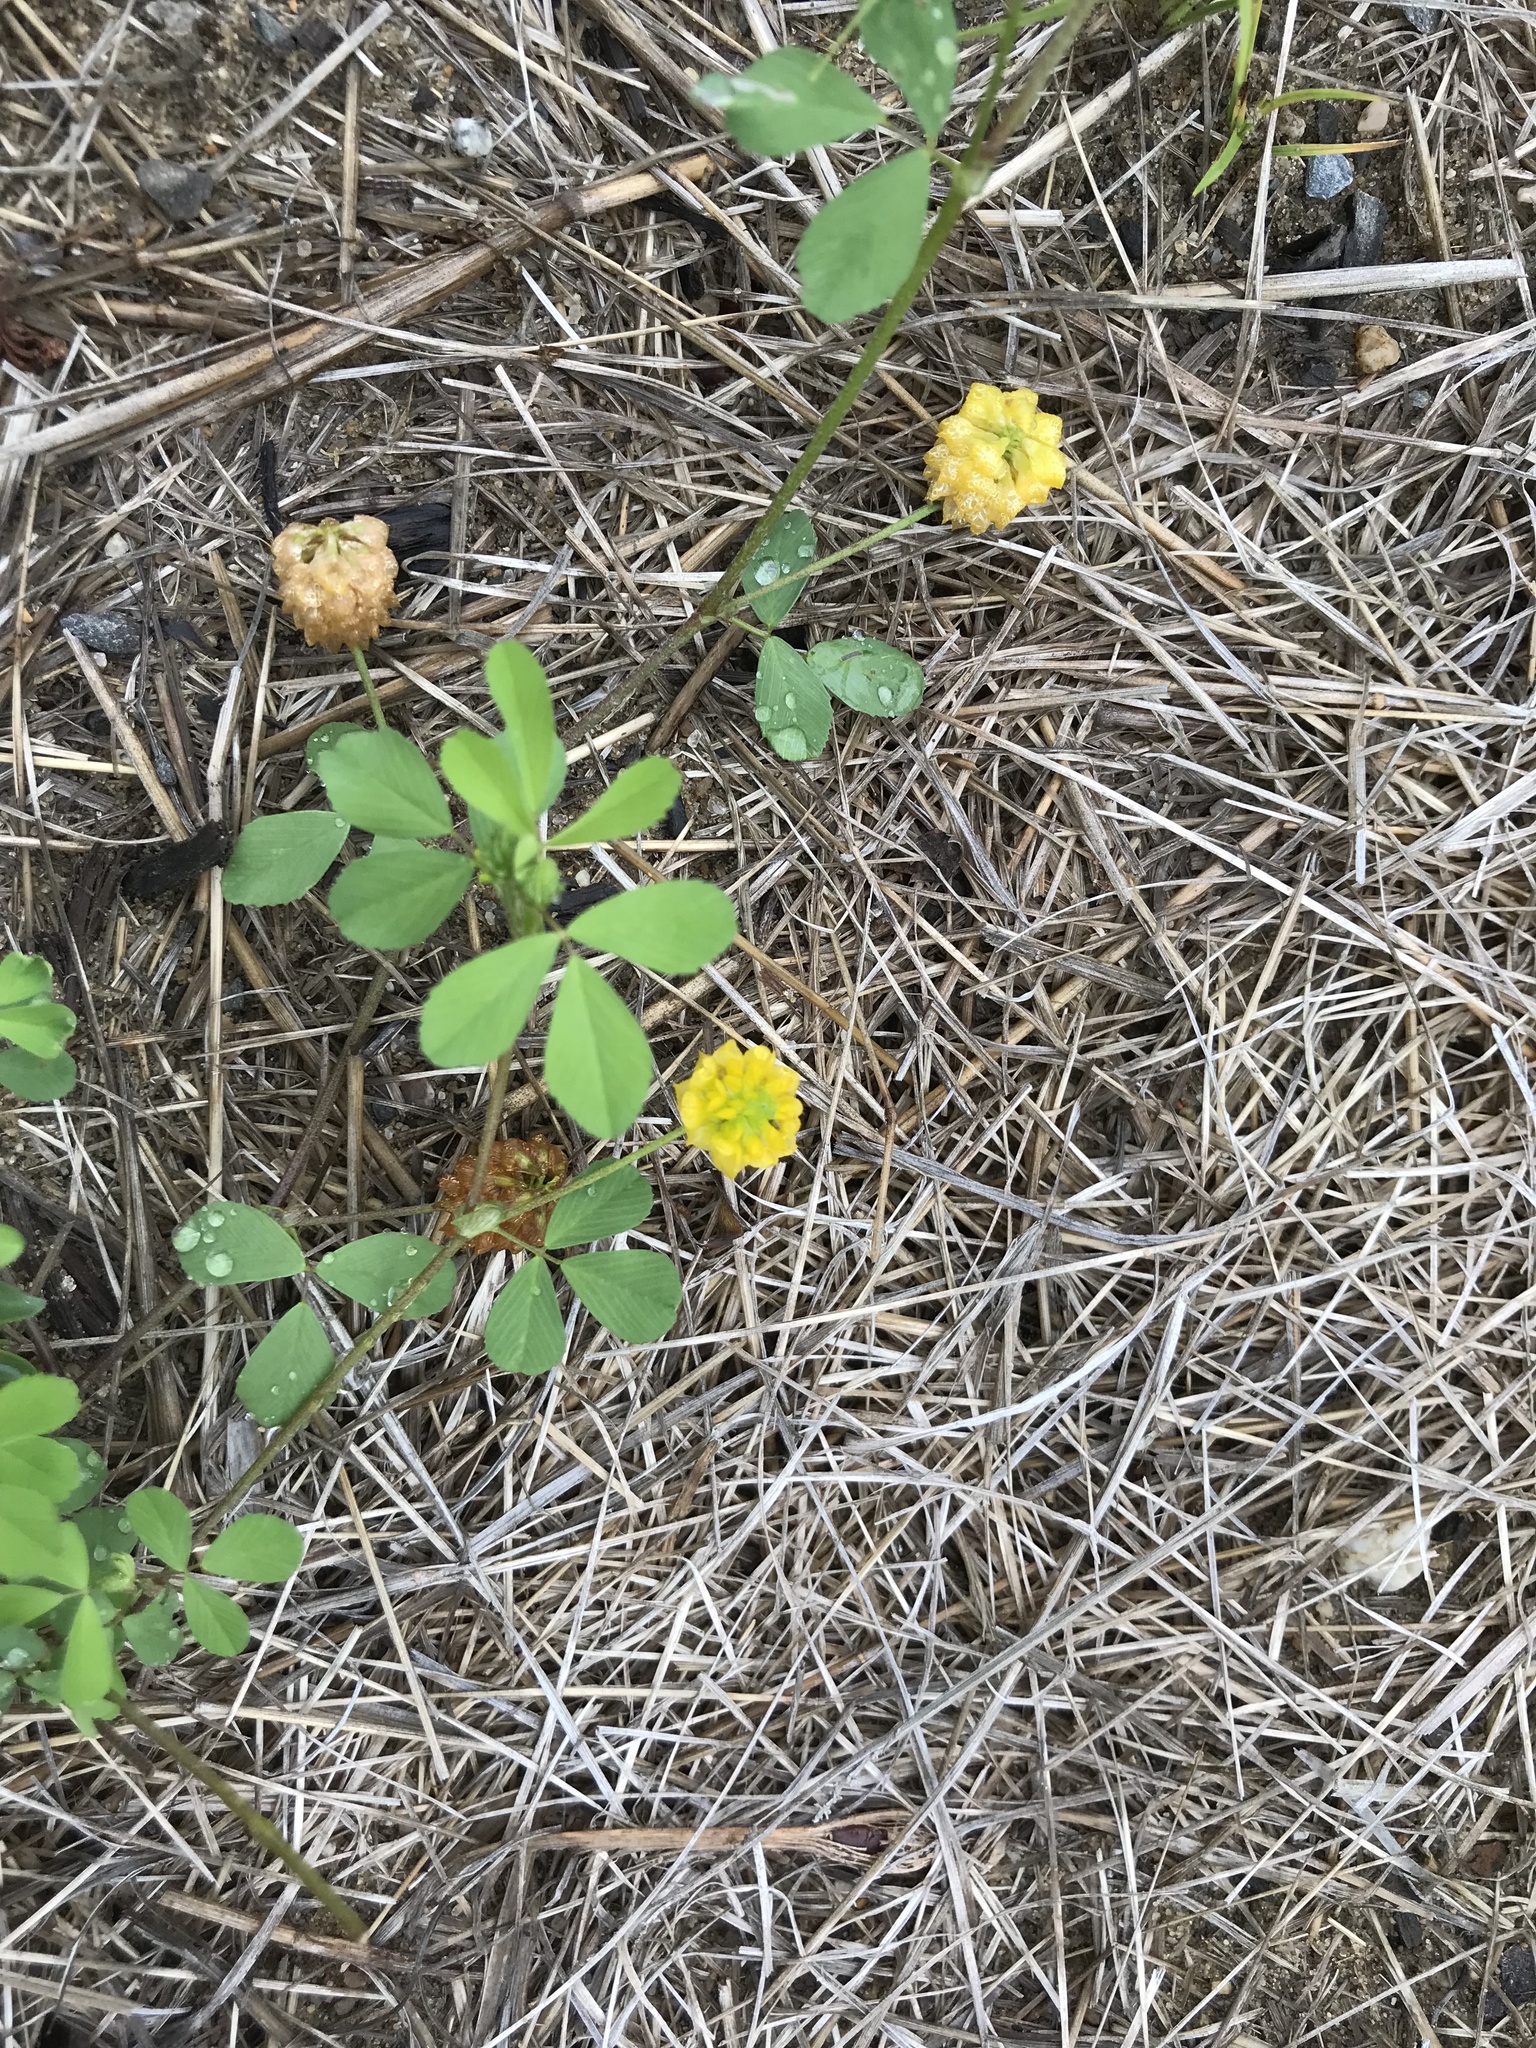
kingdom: Plantae
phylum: Tracheophyta
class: Magnoliopsida
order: Fabales
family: Fabaceae
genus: Trifolium
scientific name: Trifolium campestre
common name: Field clover
